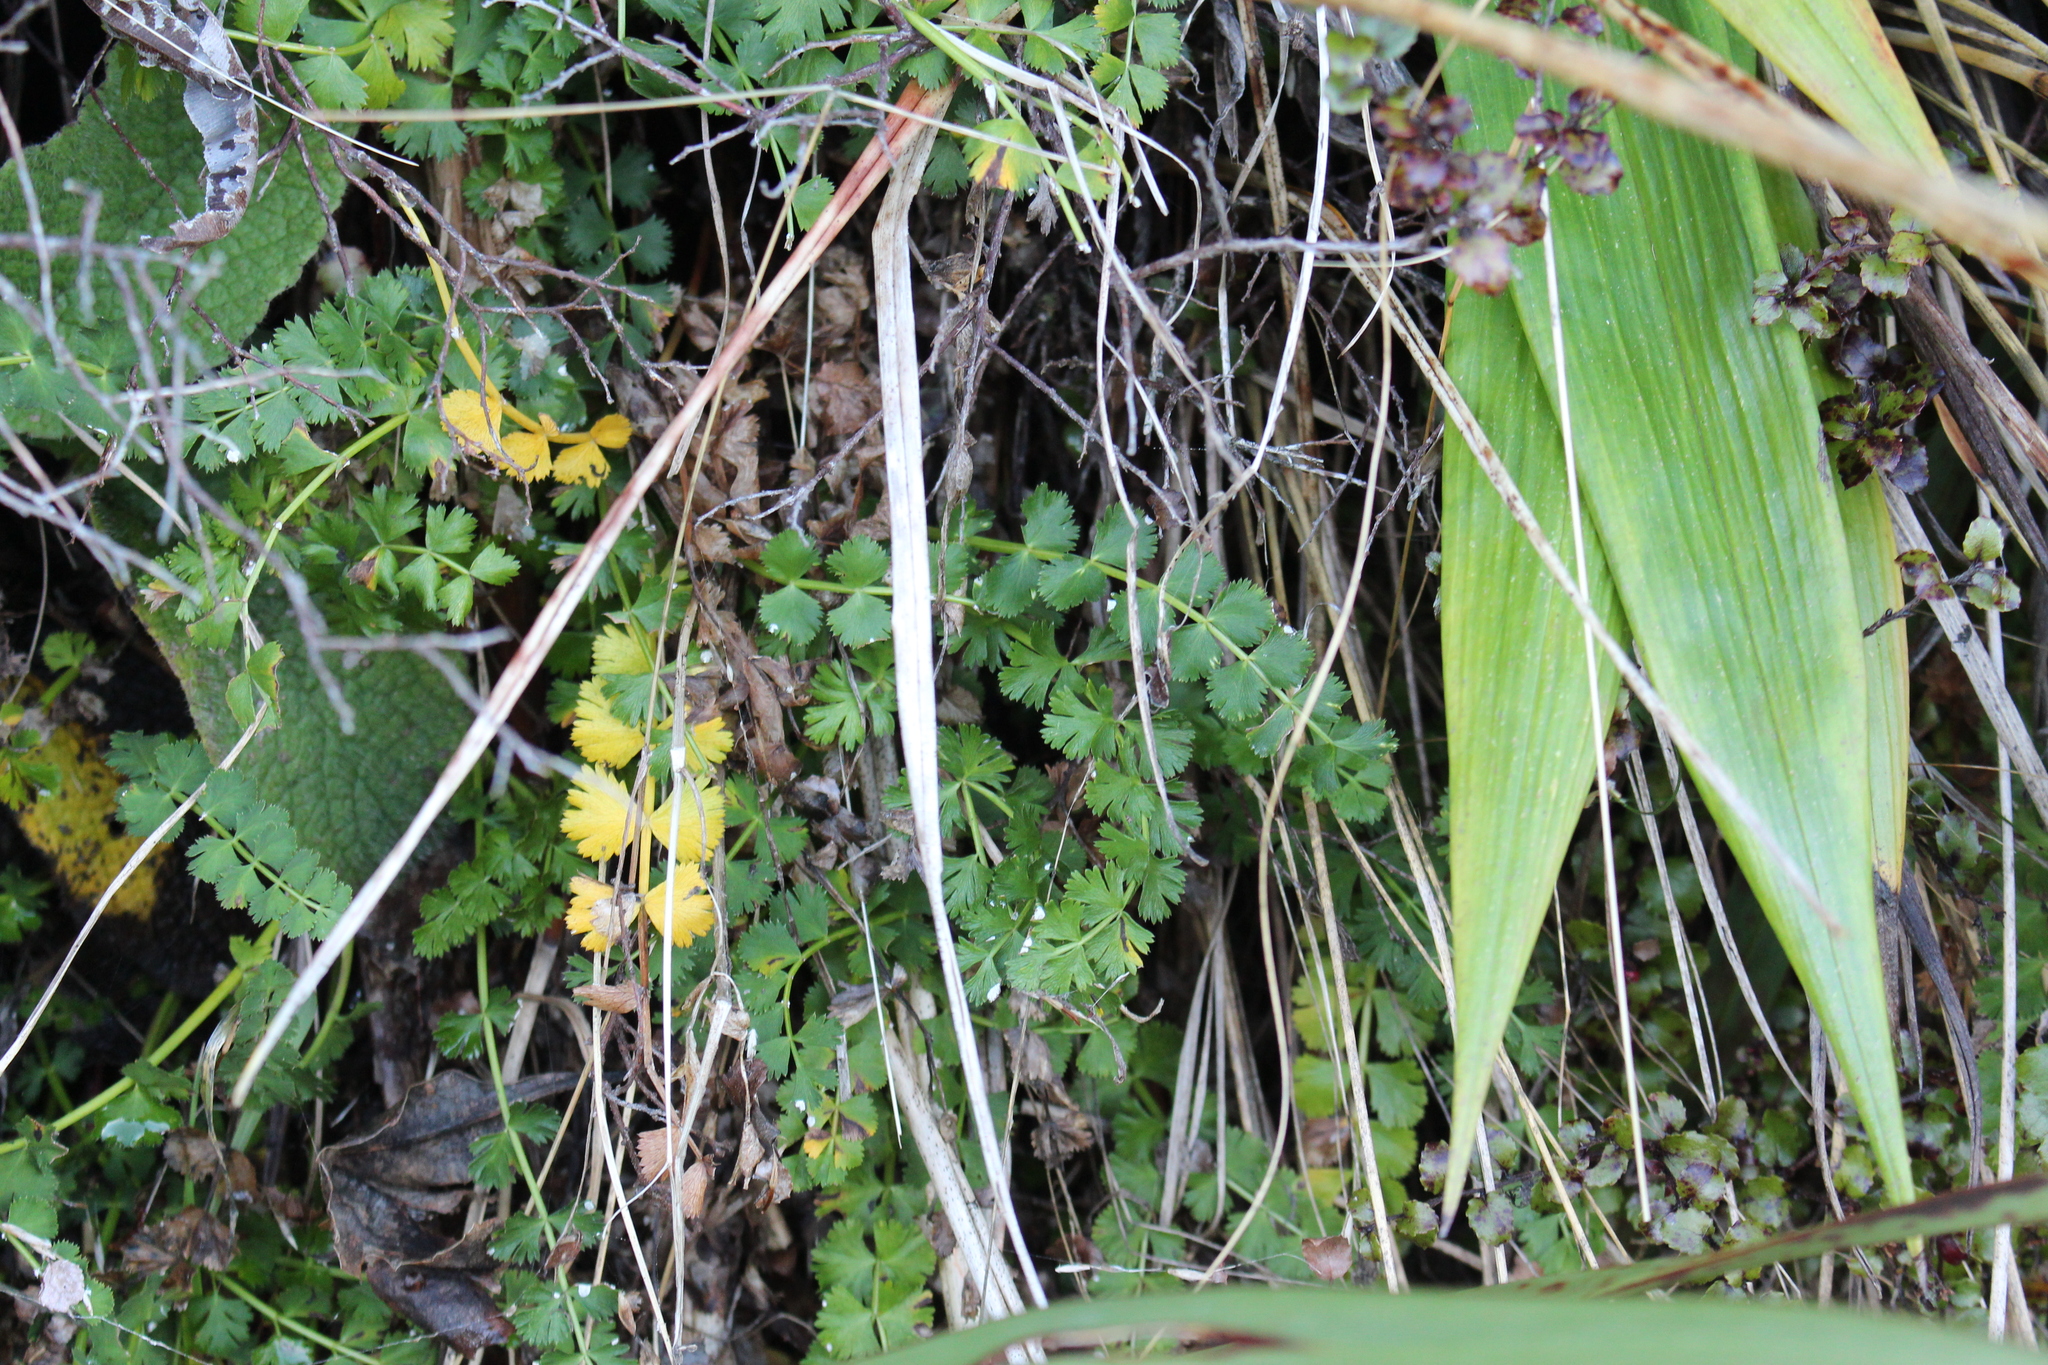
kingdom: Plantae
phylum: Tracheophyta
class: Magnoliopsida
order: Apiales
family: Apiaceae
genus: Anisotome
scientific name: Anisotome aromatica
